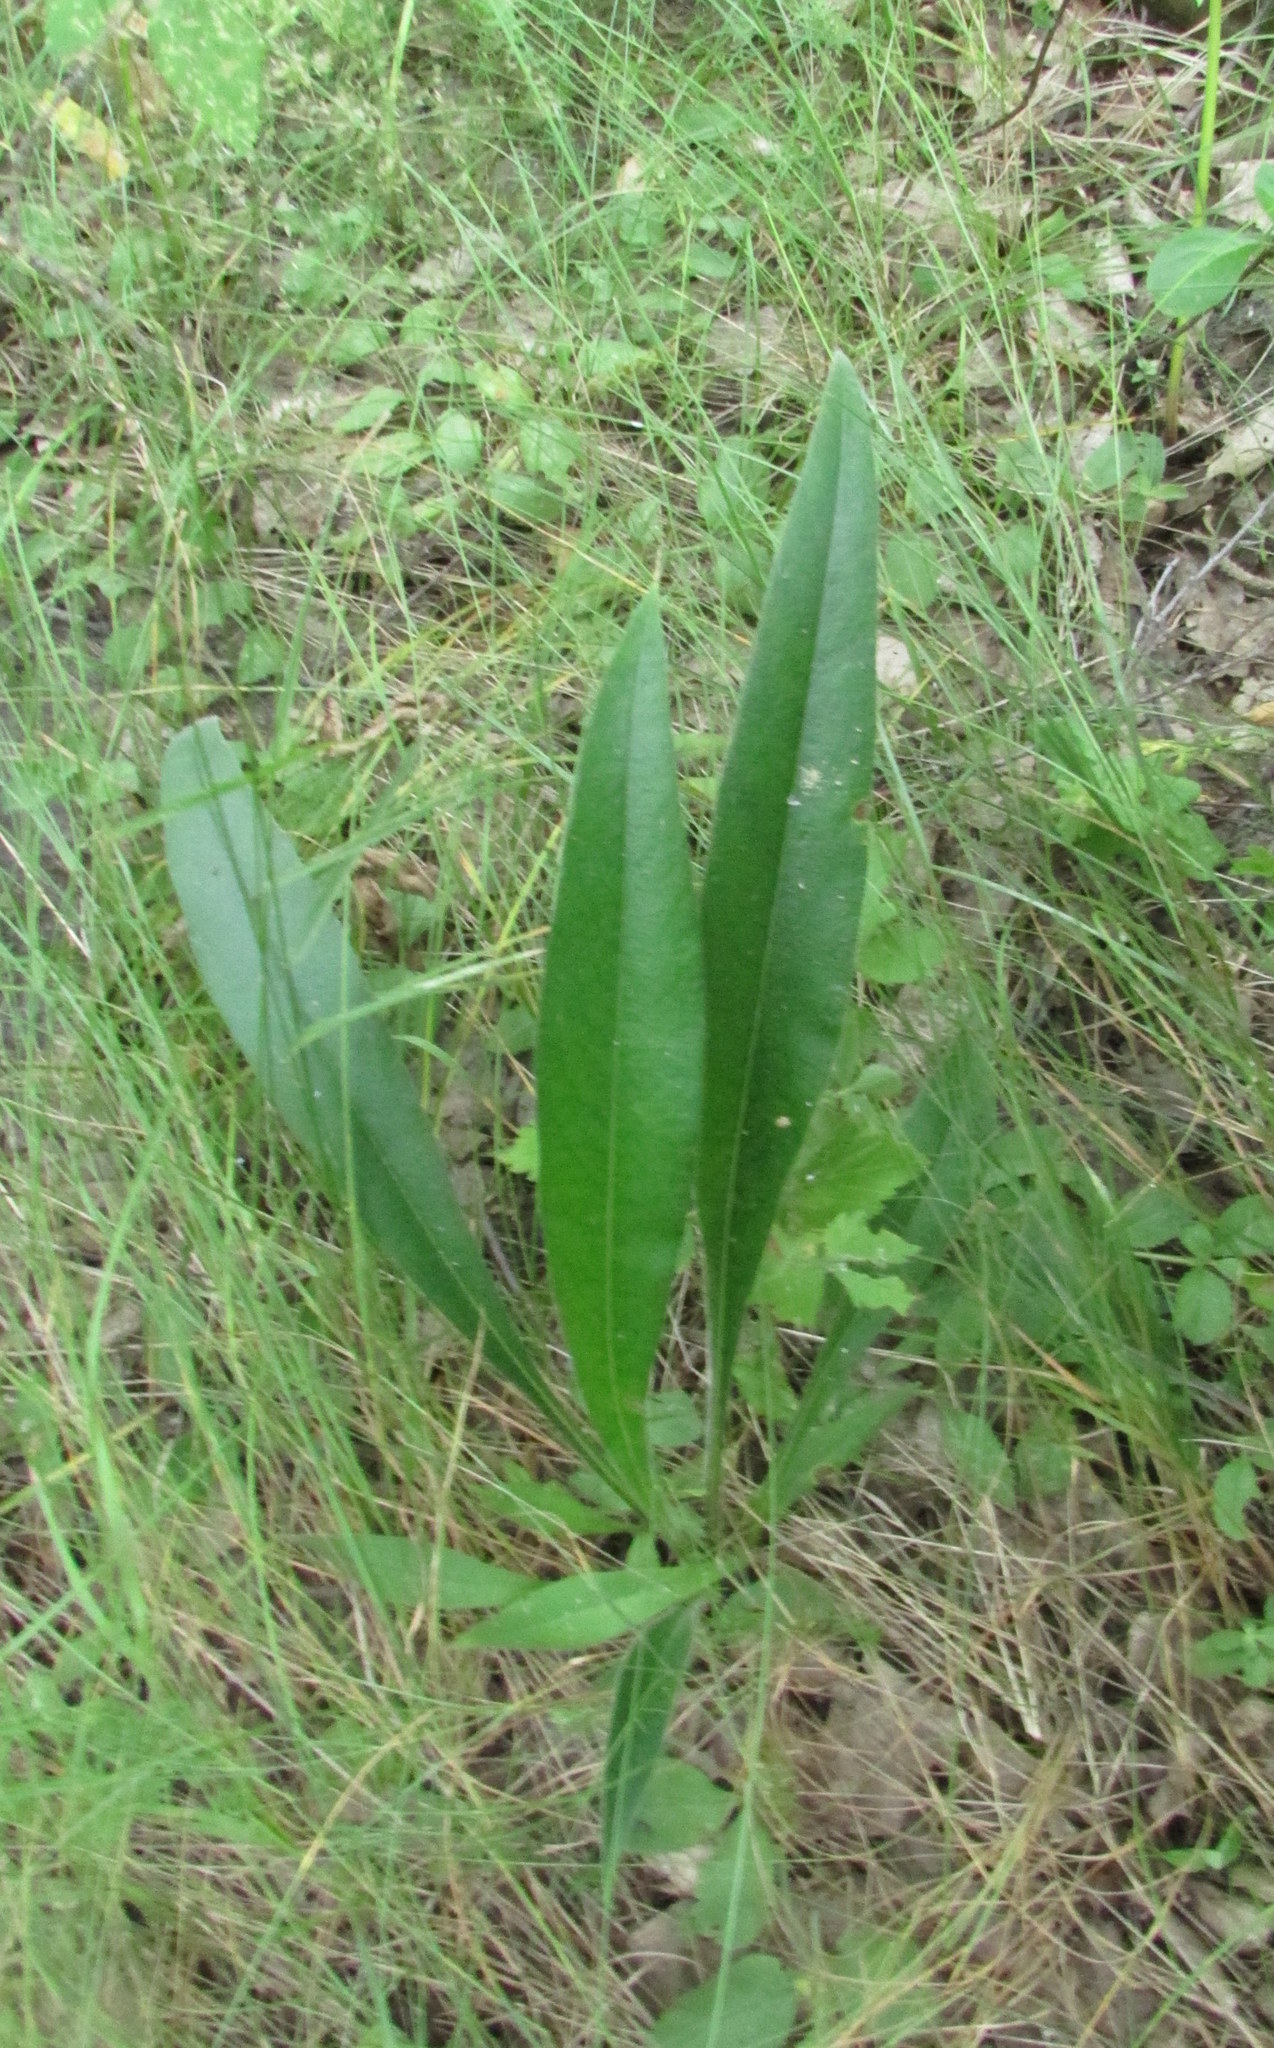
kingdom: Plantae
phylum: Tracheophyta
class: Magnoliopsida
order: Boraginales
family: Boraginaceae
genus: Pulmonaria
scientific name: Pulmonaria angustifolia
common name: Blue cowslip
